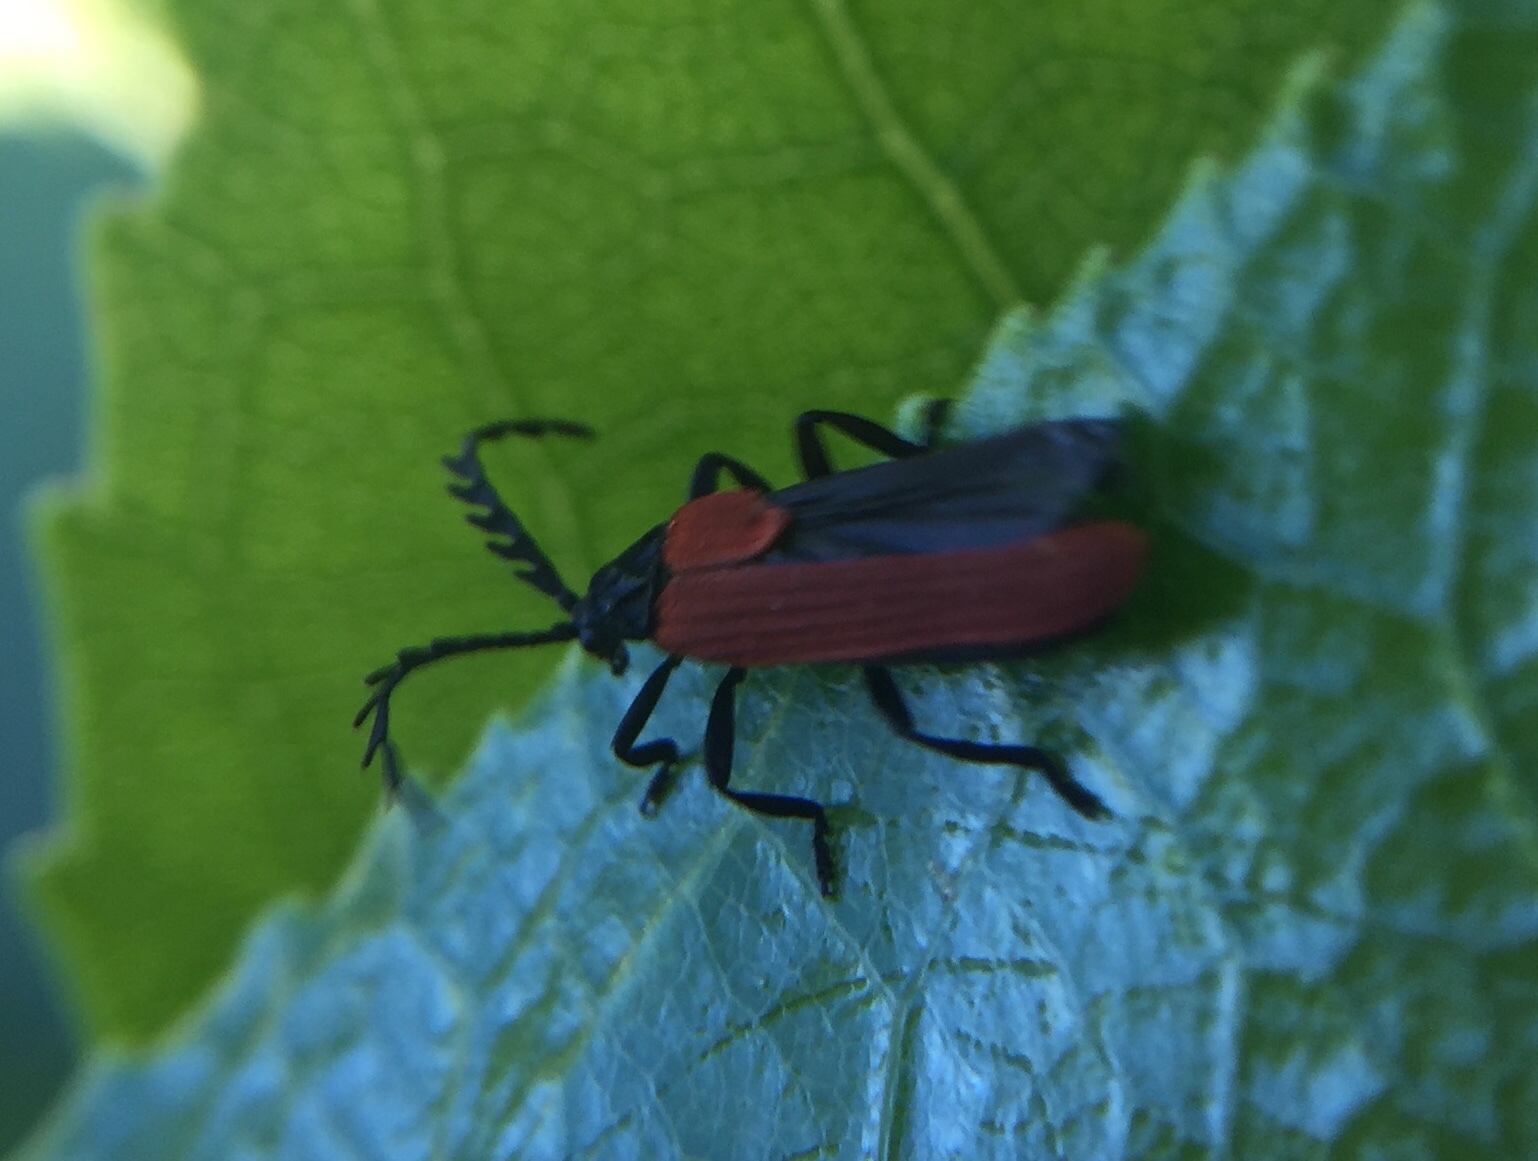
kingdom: Animalia
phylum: Arthropoda
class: Insecta
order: Coleoptera
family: Lycidae
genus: Porrostoma
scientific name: Porrostoma rufipenne
